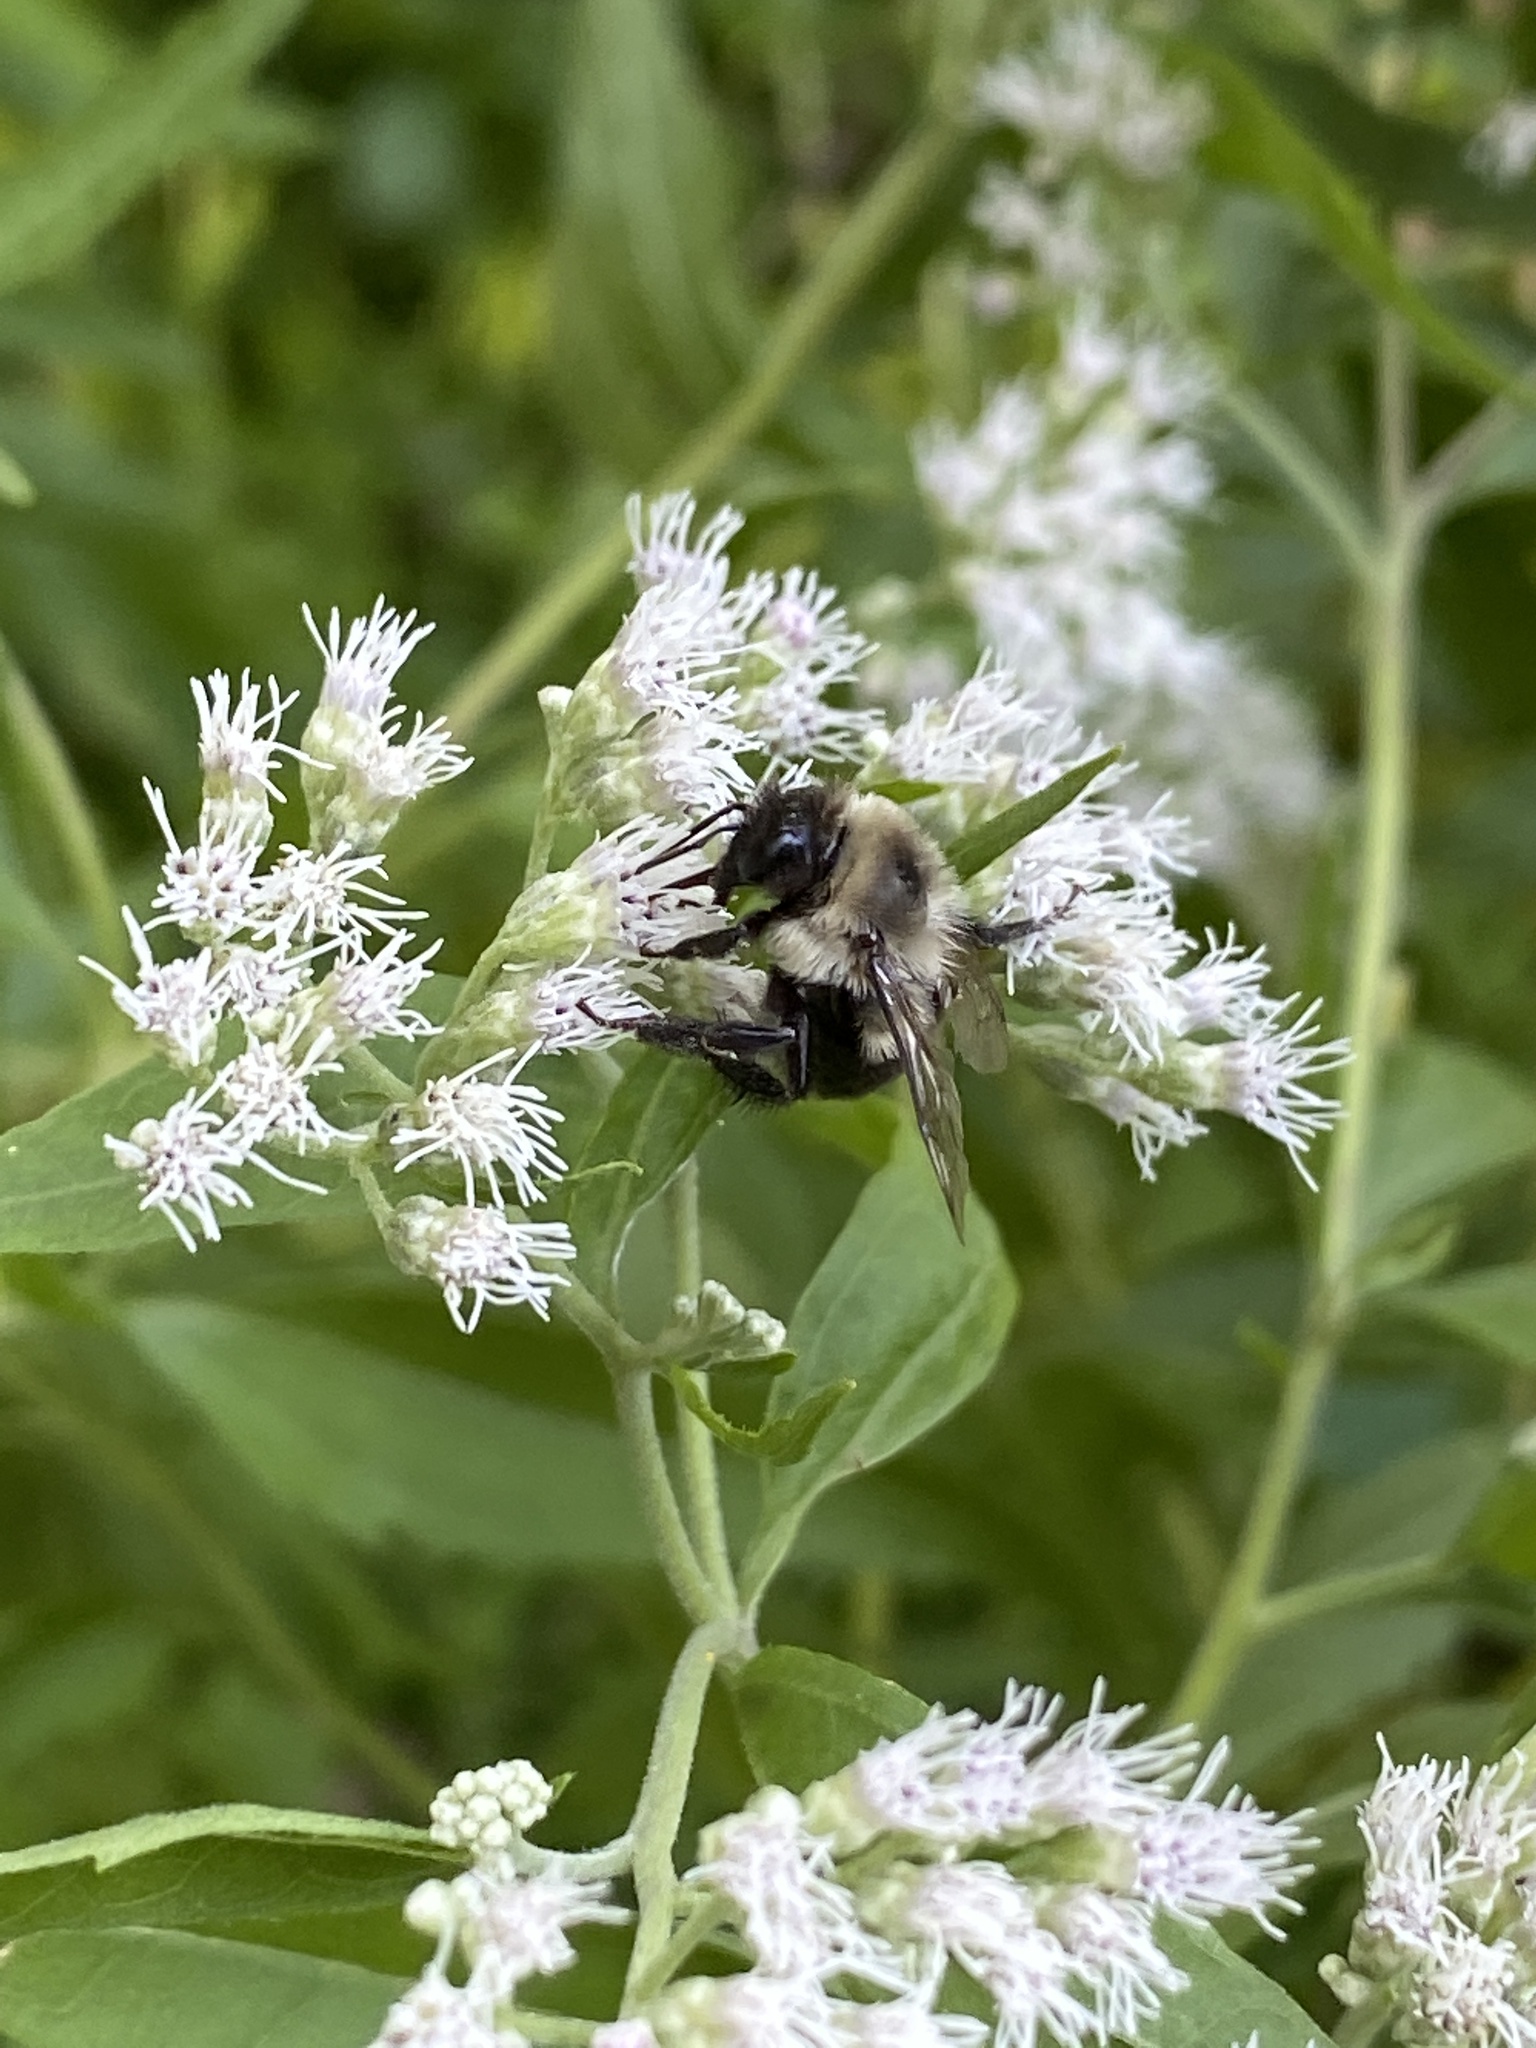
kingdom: Animalia
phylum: Arthropoda
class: Insecta
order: Hymenoptera
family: Apidae
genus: Bombus
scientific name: Bombus impatiens
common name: Common eastern bumble bee
